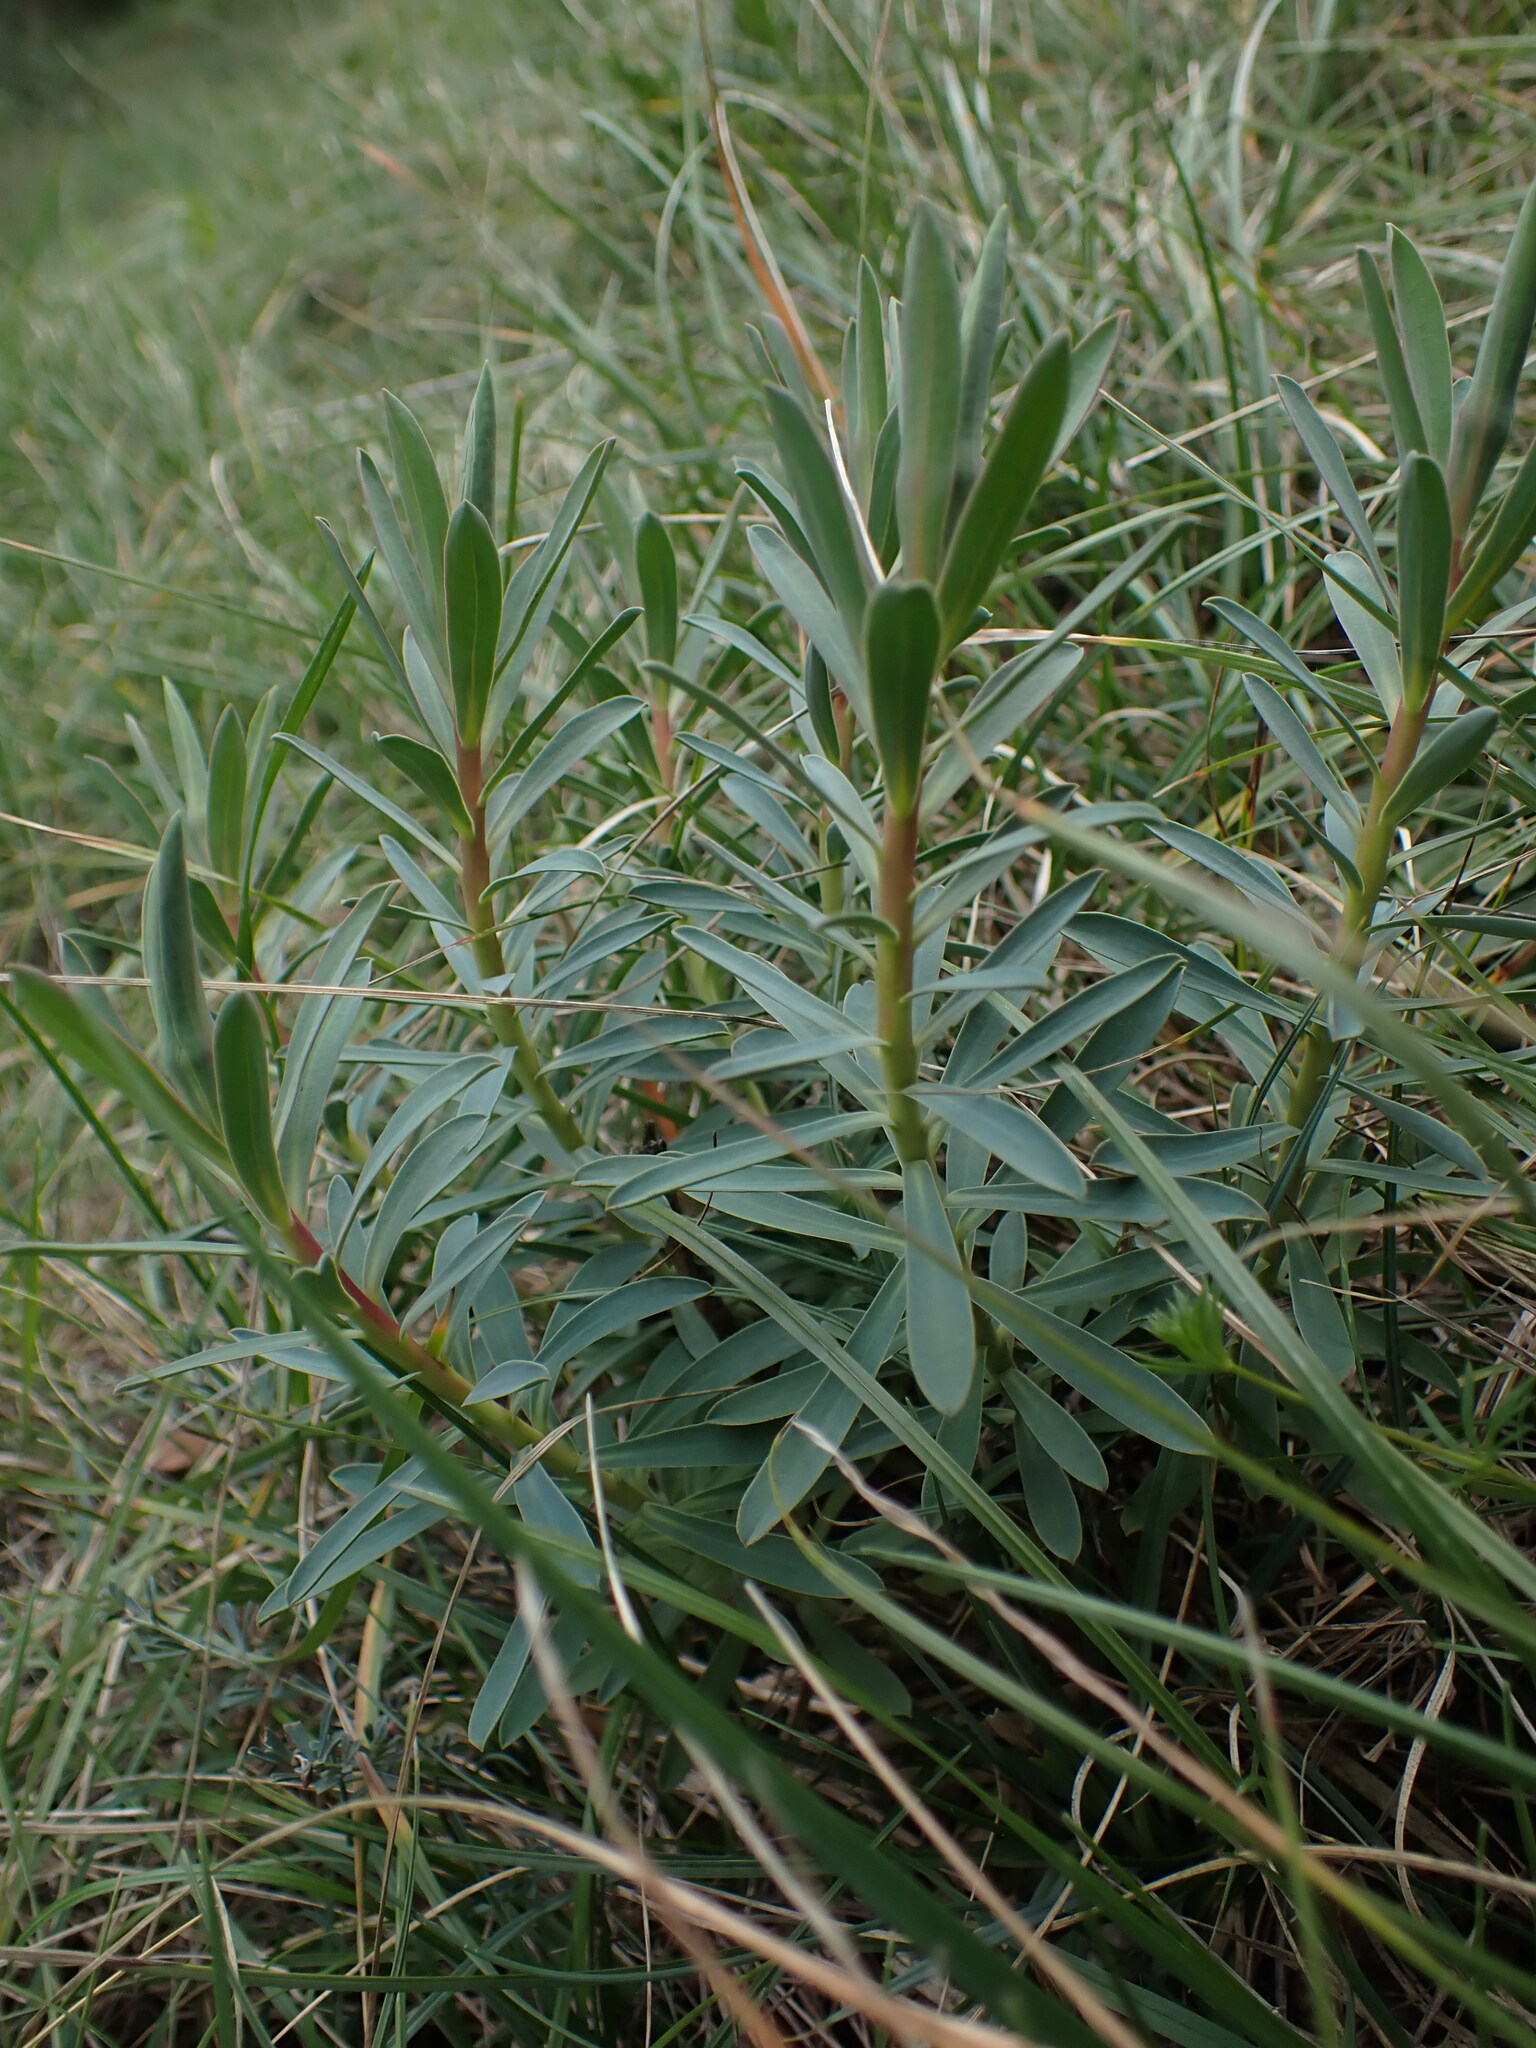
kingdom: Plantae
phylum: Tracheophyta
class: Magnoliopsida
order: Malpighiales
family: Euphorbiaceae
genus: Euphorbia
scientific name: Euphorbia nicaeensis
